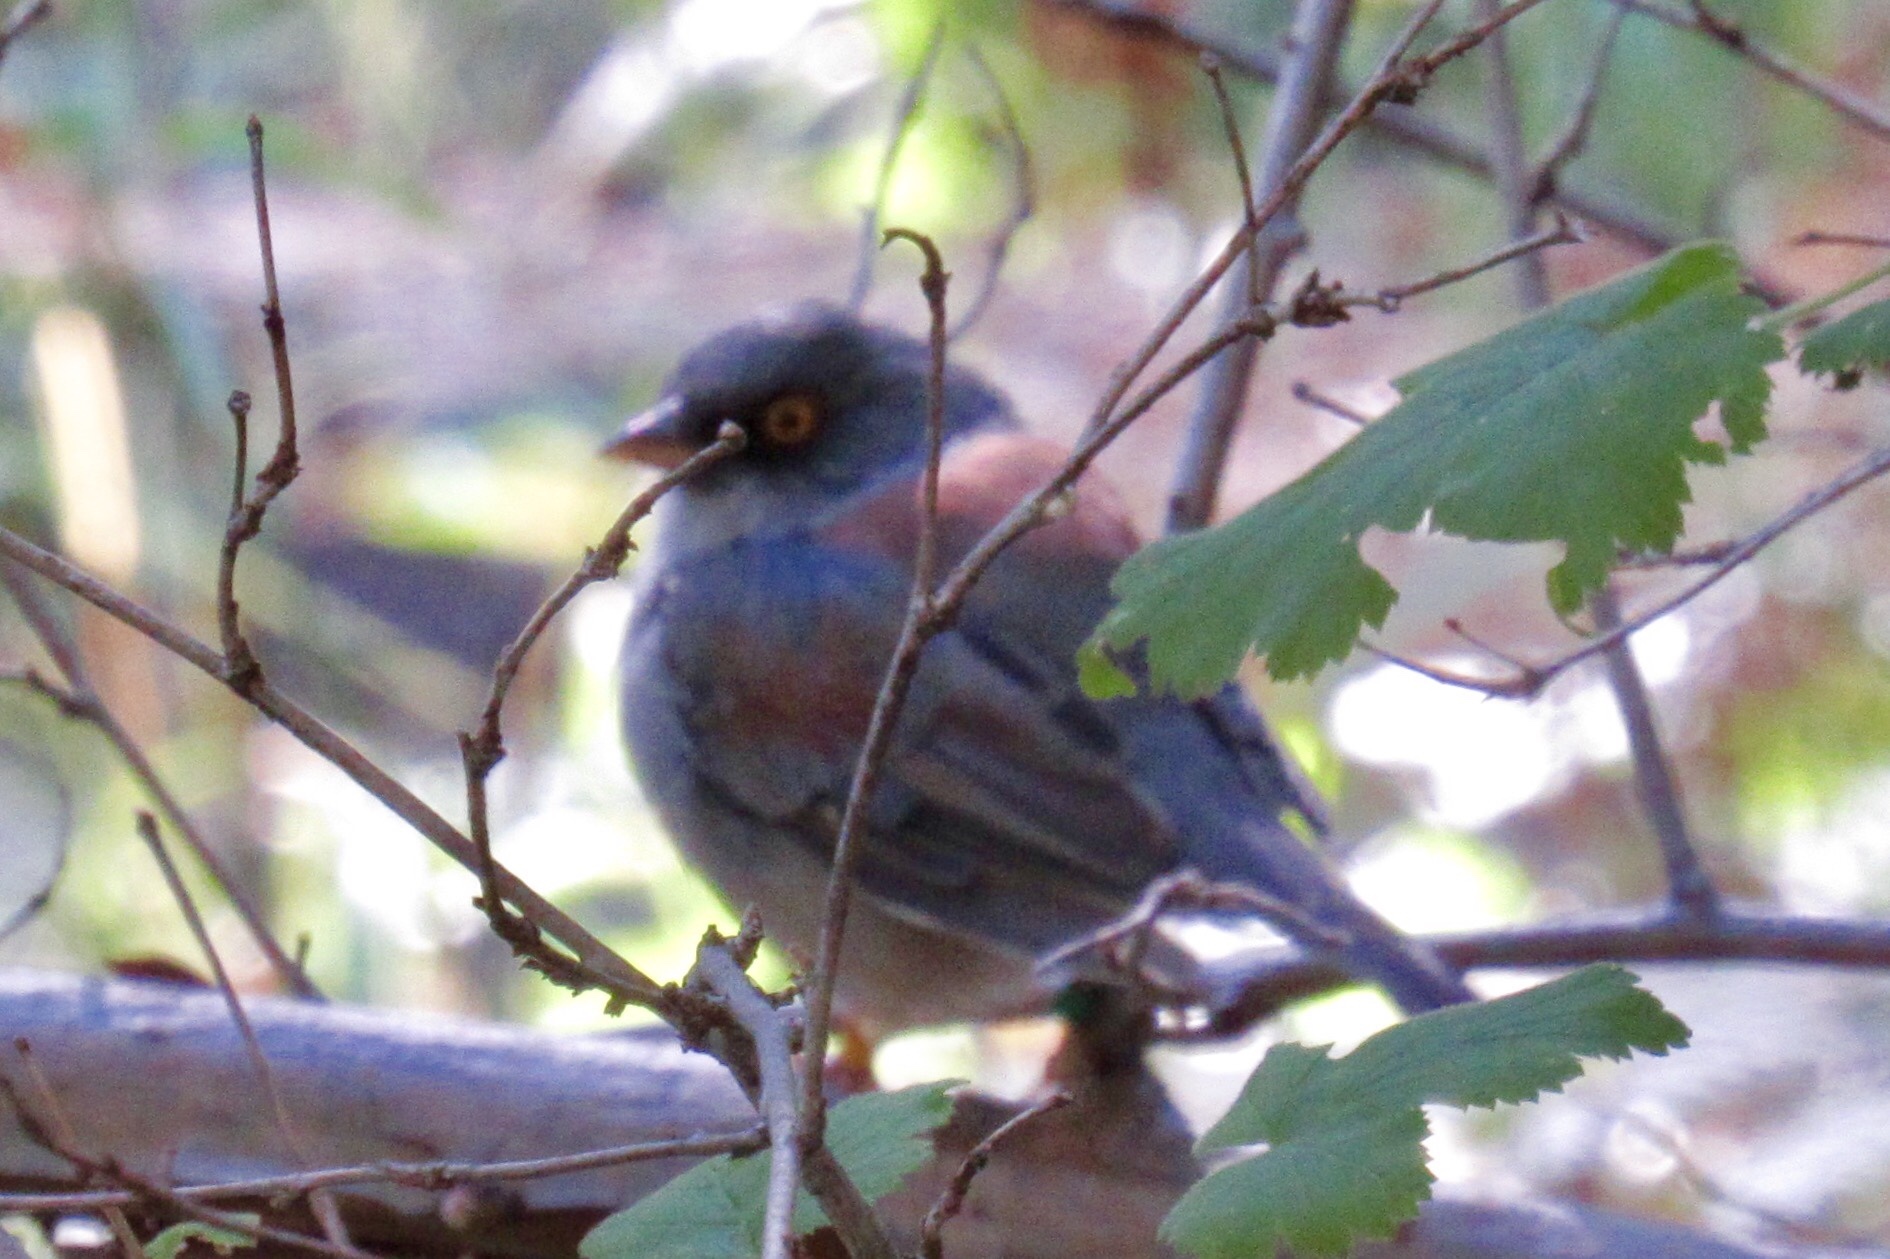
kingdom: Animalia
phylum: Chordata
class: Aves
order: Passeriformes
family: Passerellidae
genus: Junco
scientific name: Junco phaeonotus
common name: Yellow-eyed junco
